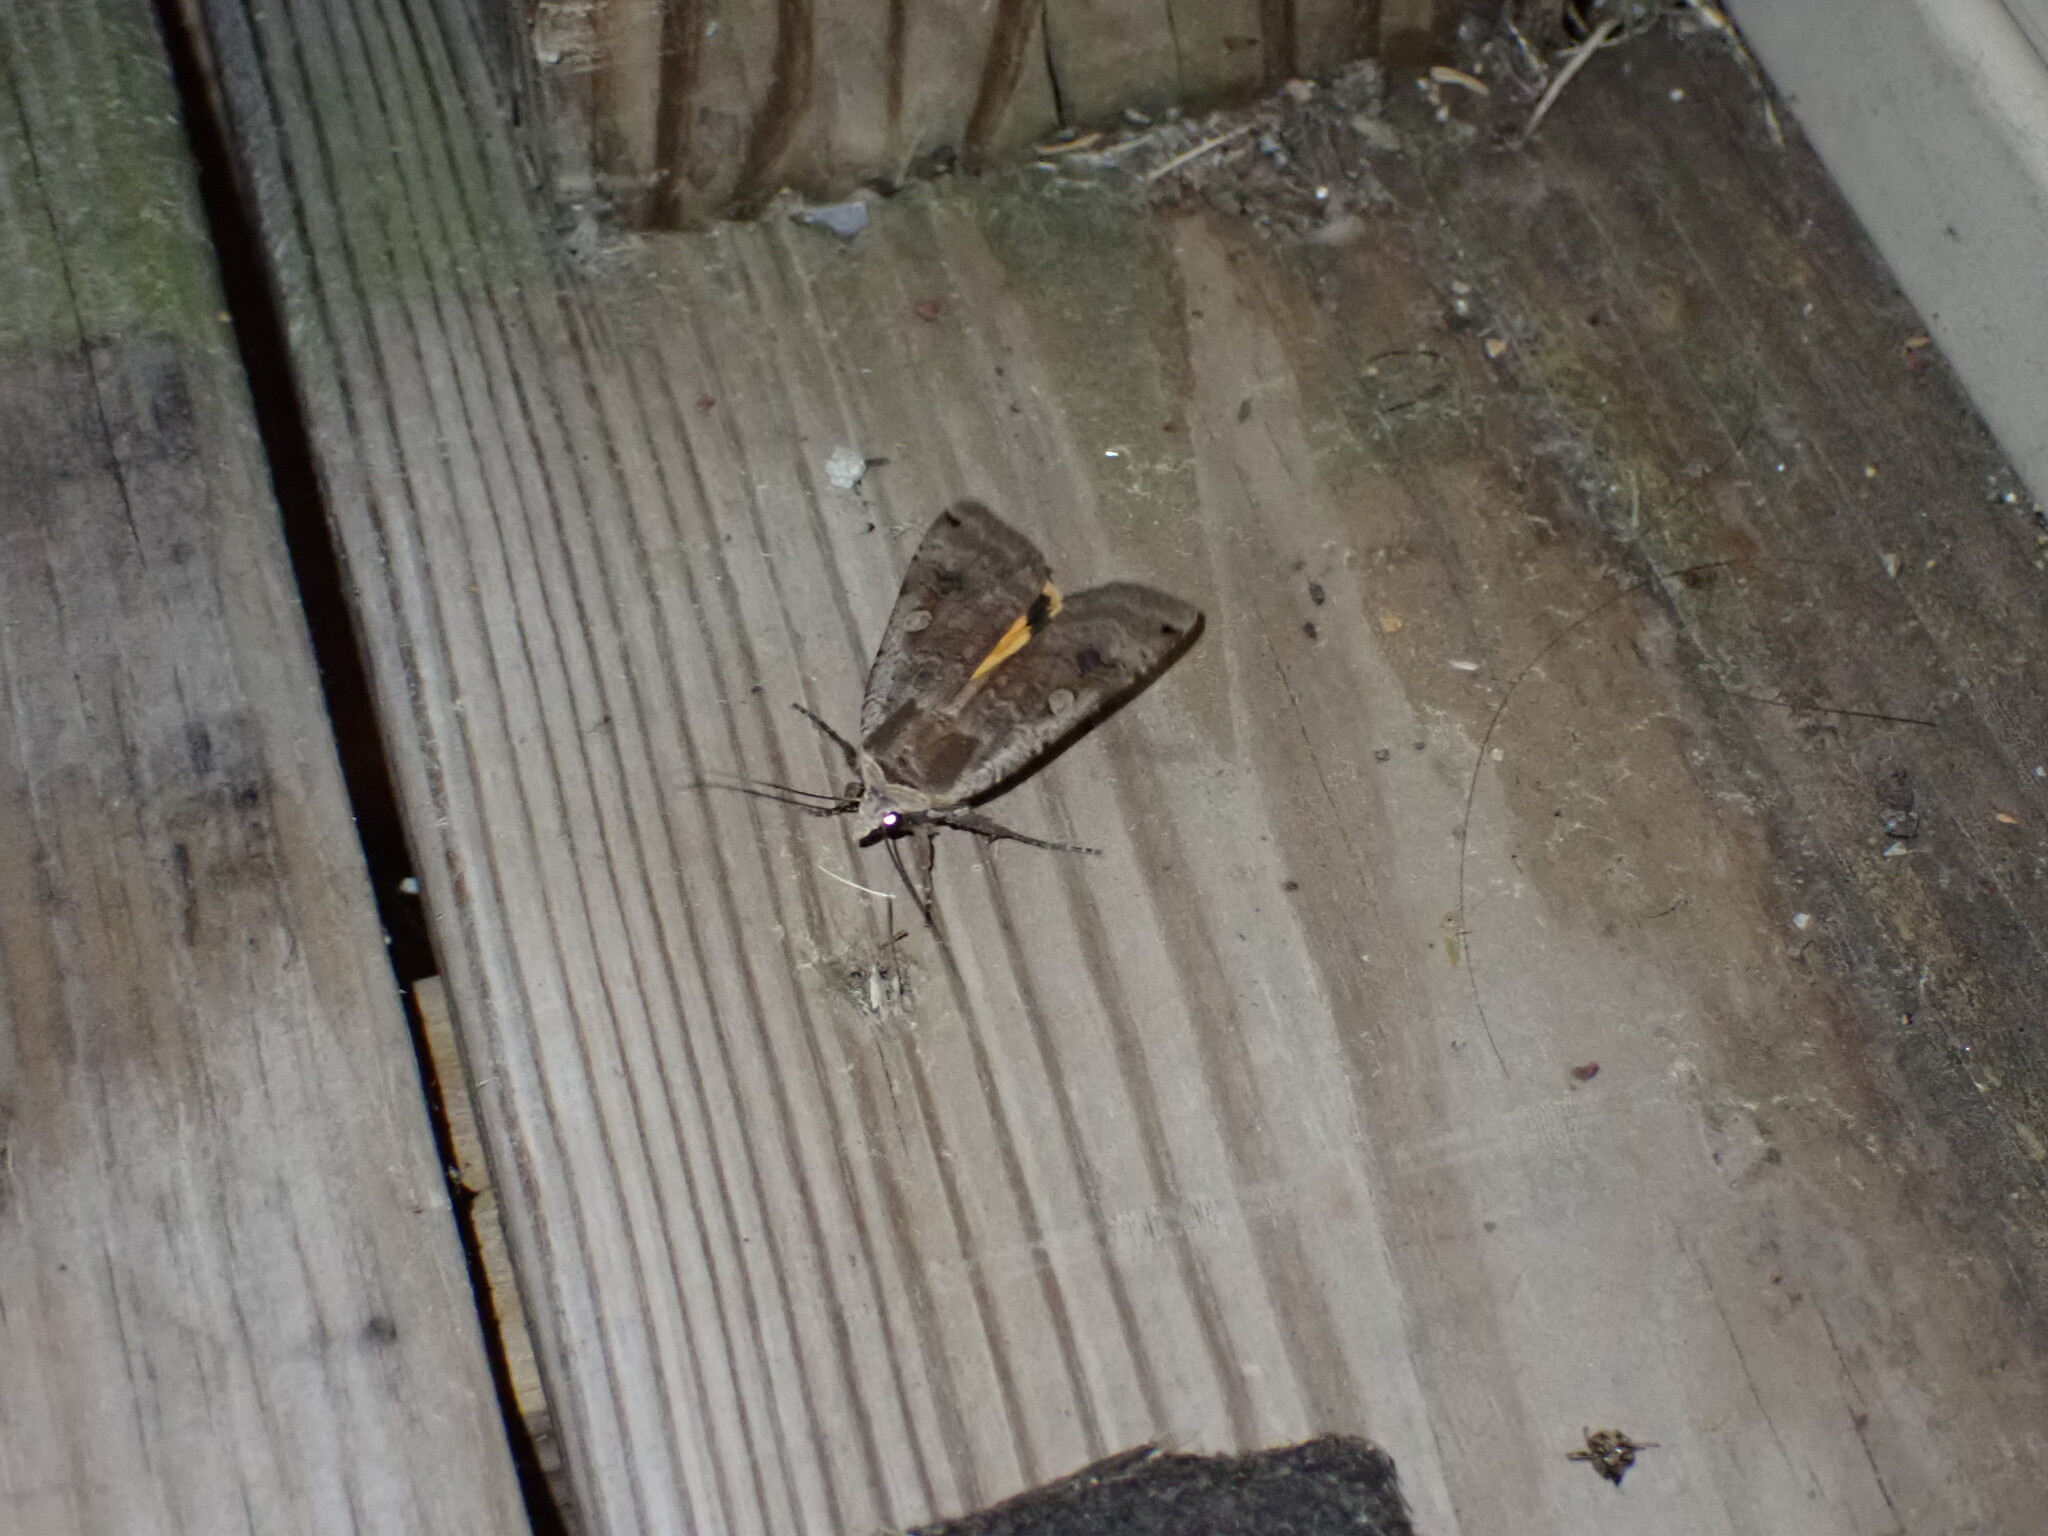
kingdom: Animalia
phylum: Arthropoda
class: Insecta
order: Lepidoptera
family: Noctuidae
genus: Noctua
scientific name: Noctua pronuba
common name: Large yellow underwing
